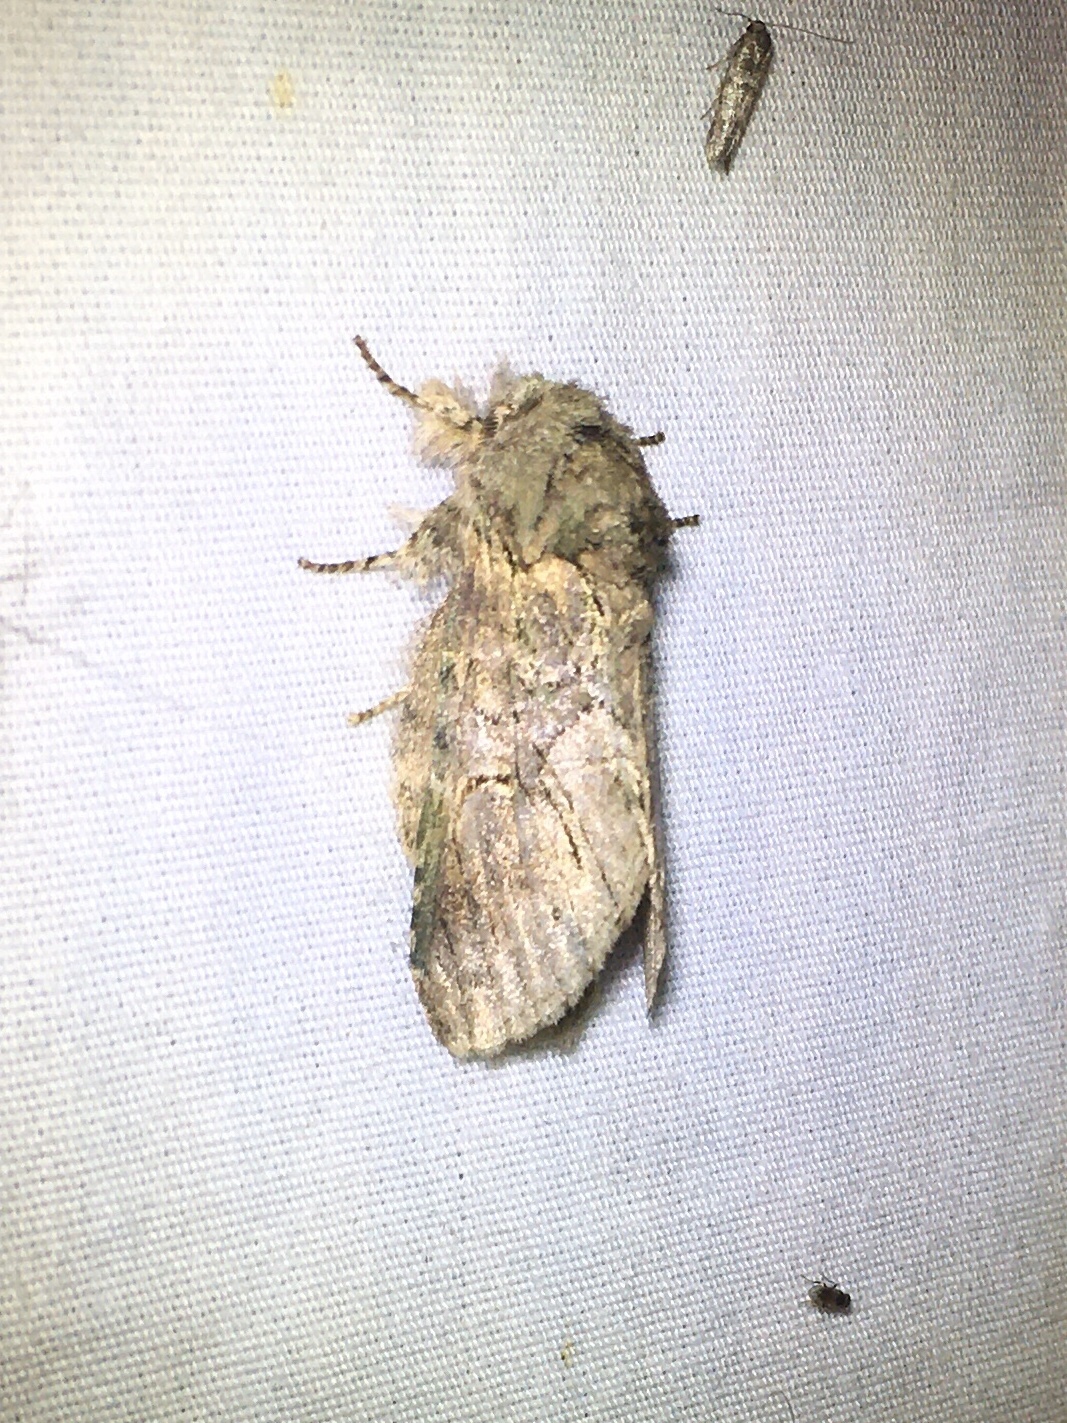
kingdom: Animalia
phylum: Arthropoda
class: Insecta
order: Lepidoptera
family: Notodontidae
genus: Disphragis
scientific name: Disphragis
